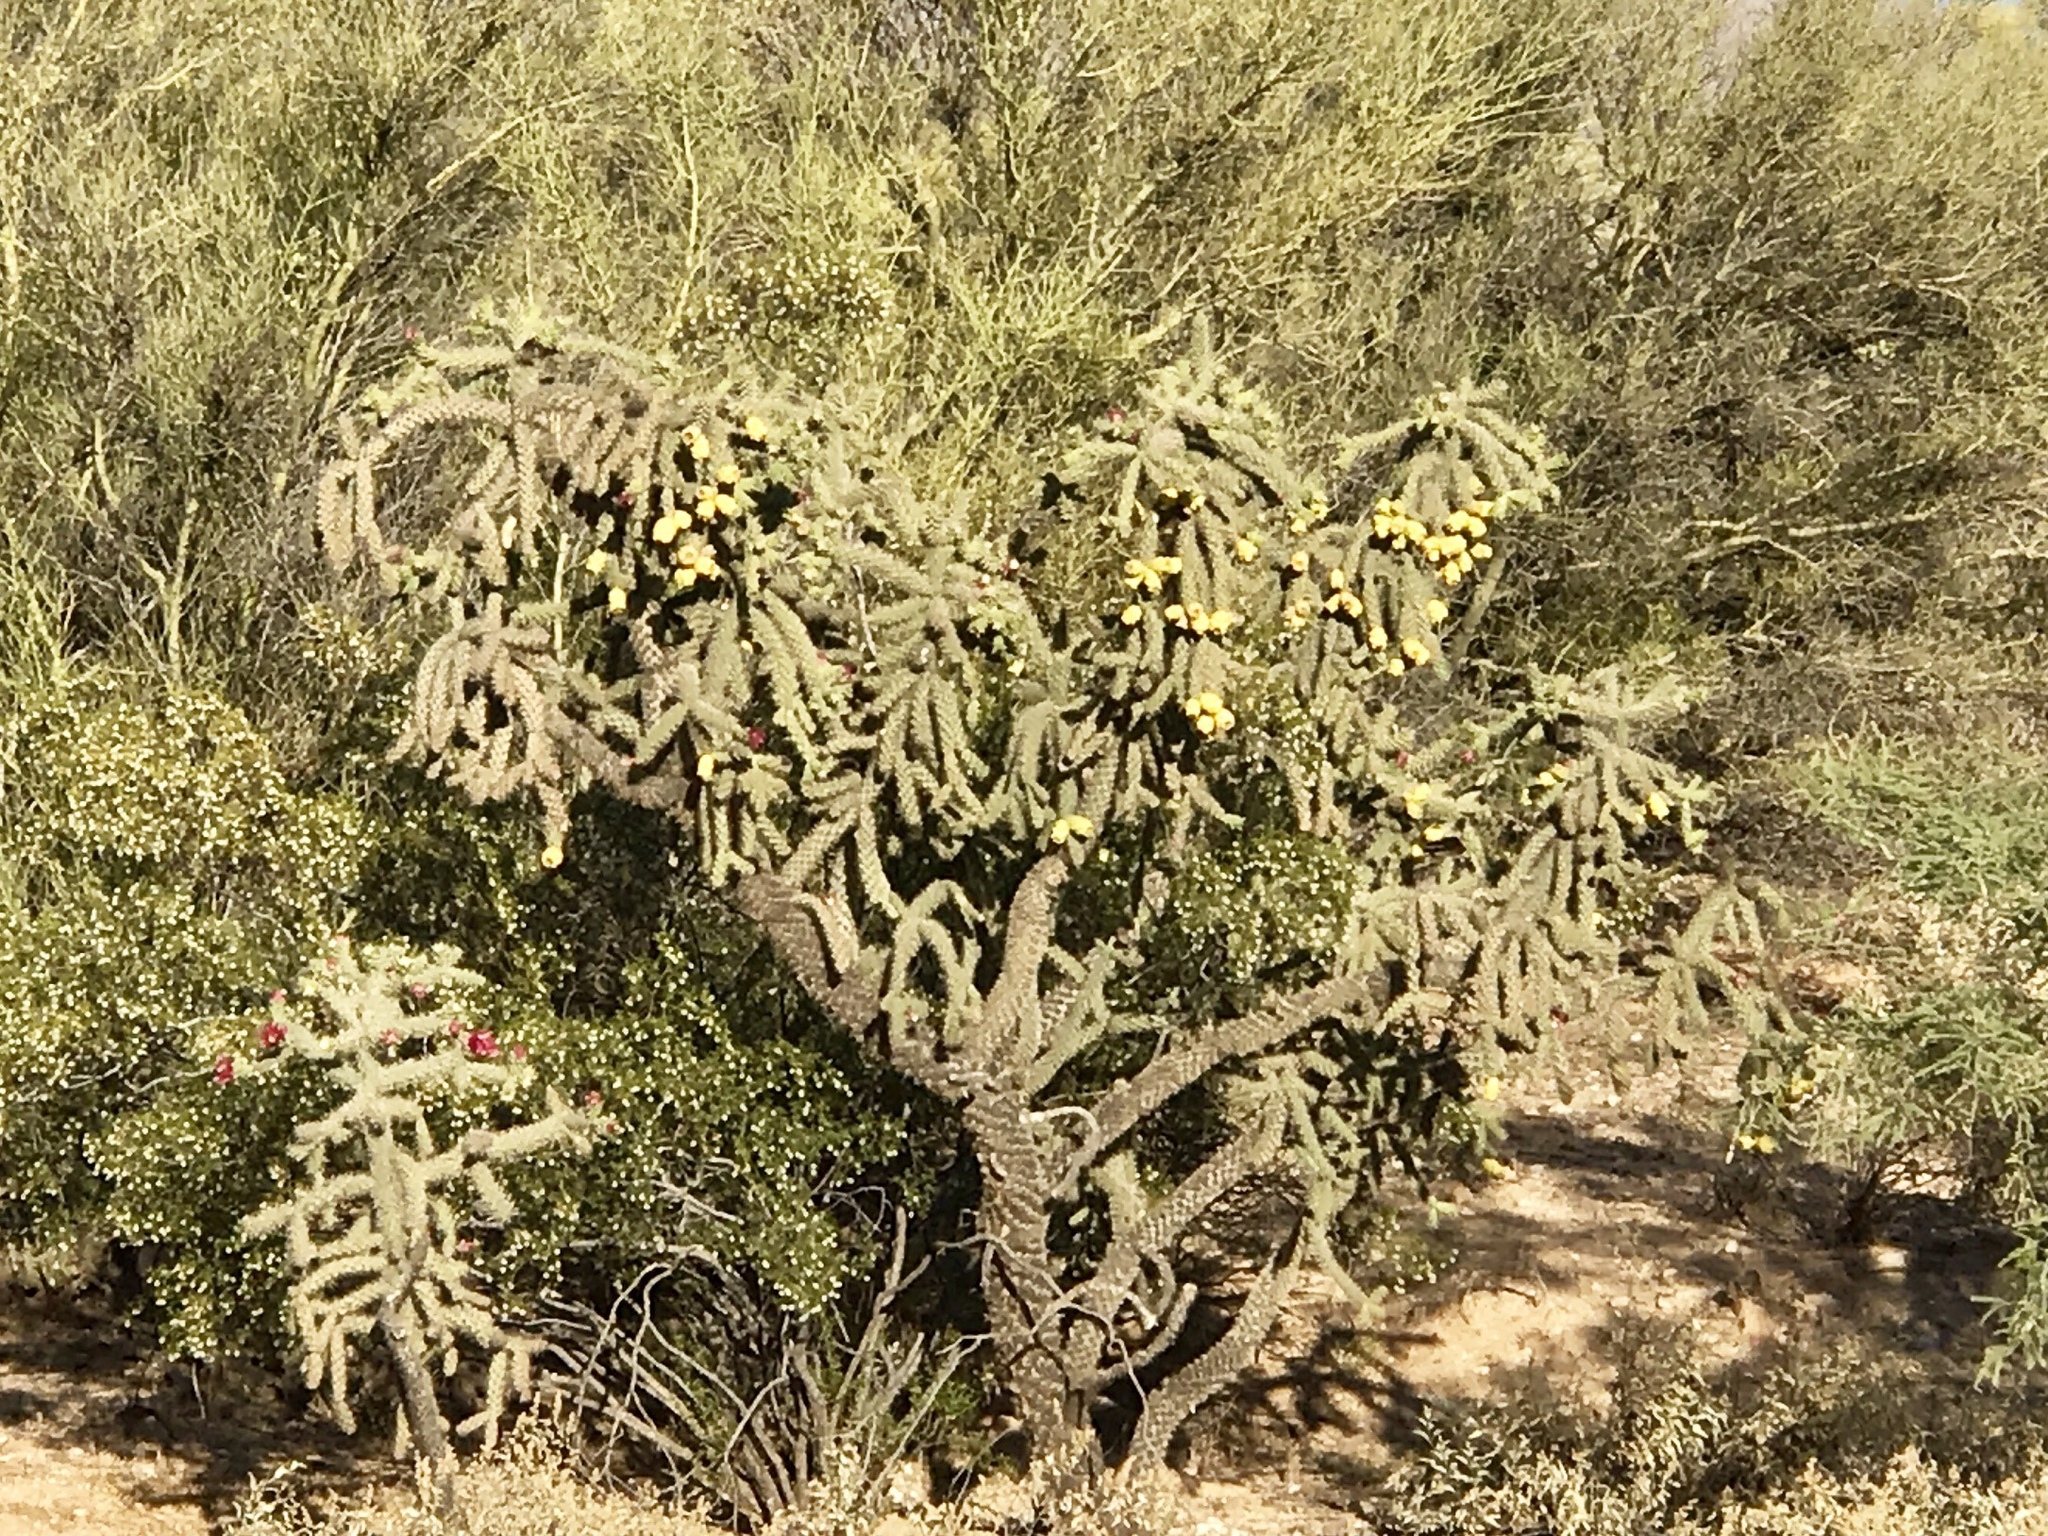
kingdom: Plantae
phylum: Tracheophyta
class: Magnoliopsida
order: Caryophyllales
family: Cactaceae
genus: Cylindropuntia
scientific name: Cylindropuntia fulgida
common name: Jumping cholla
